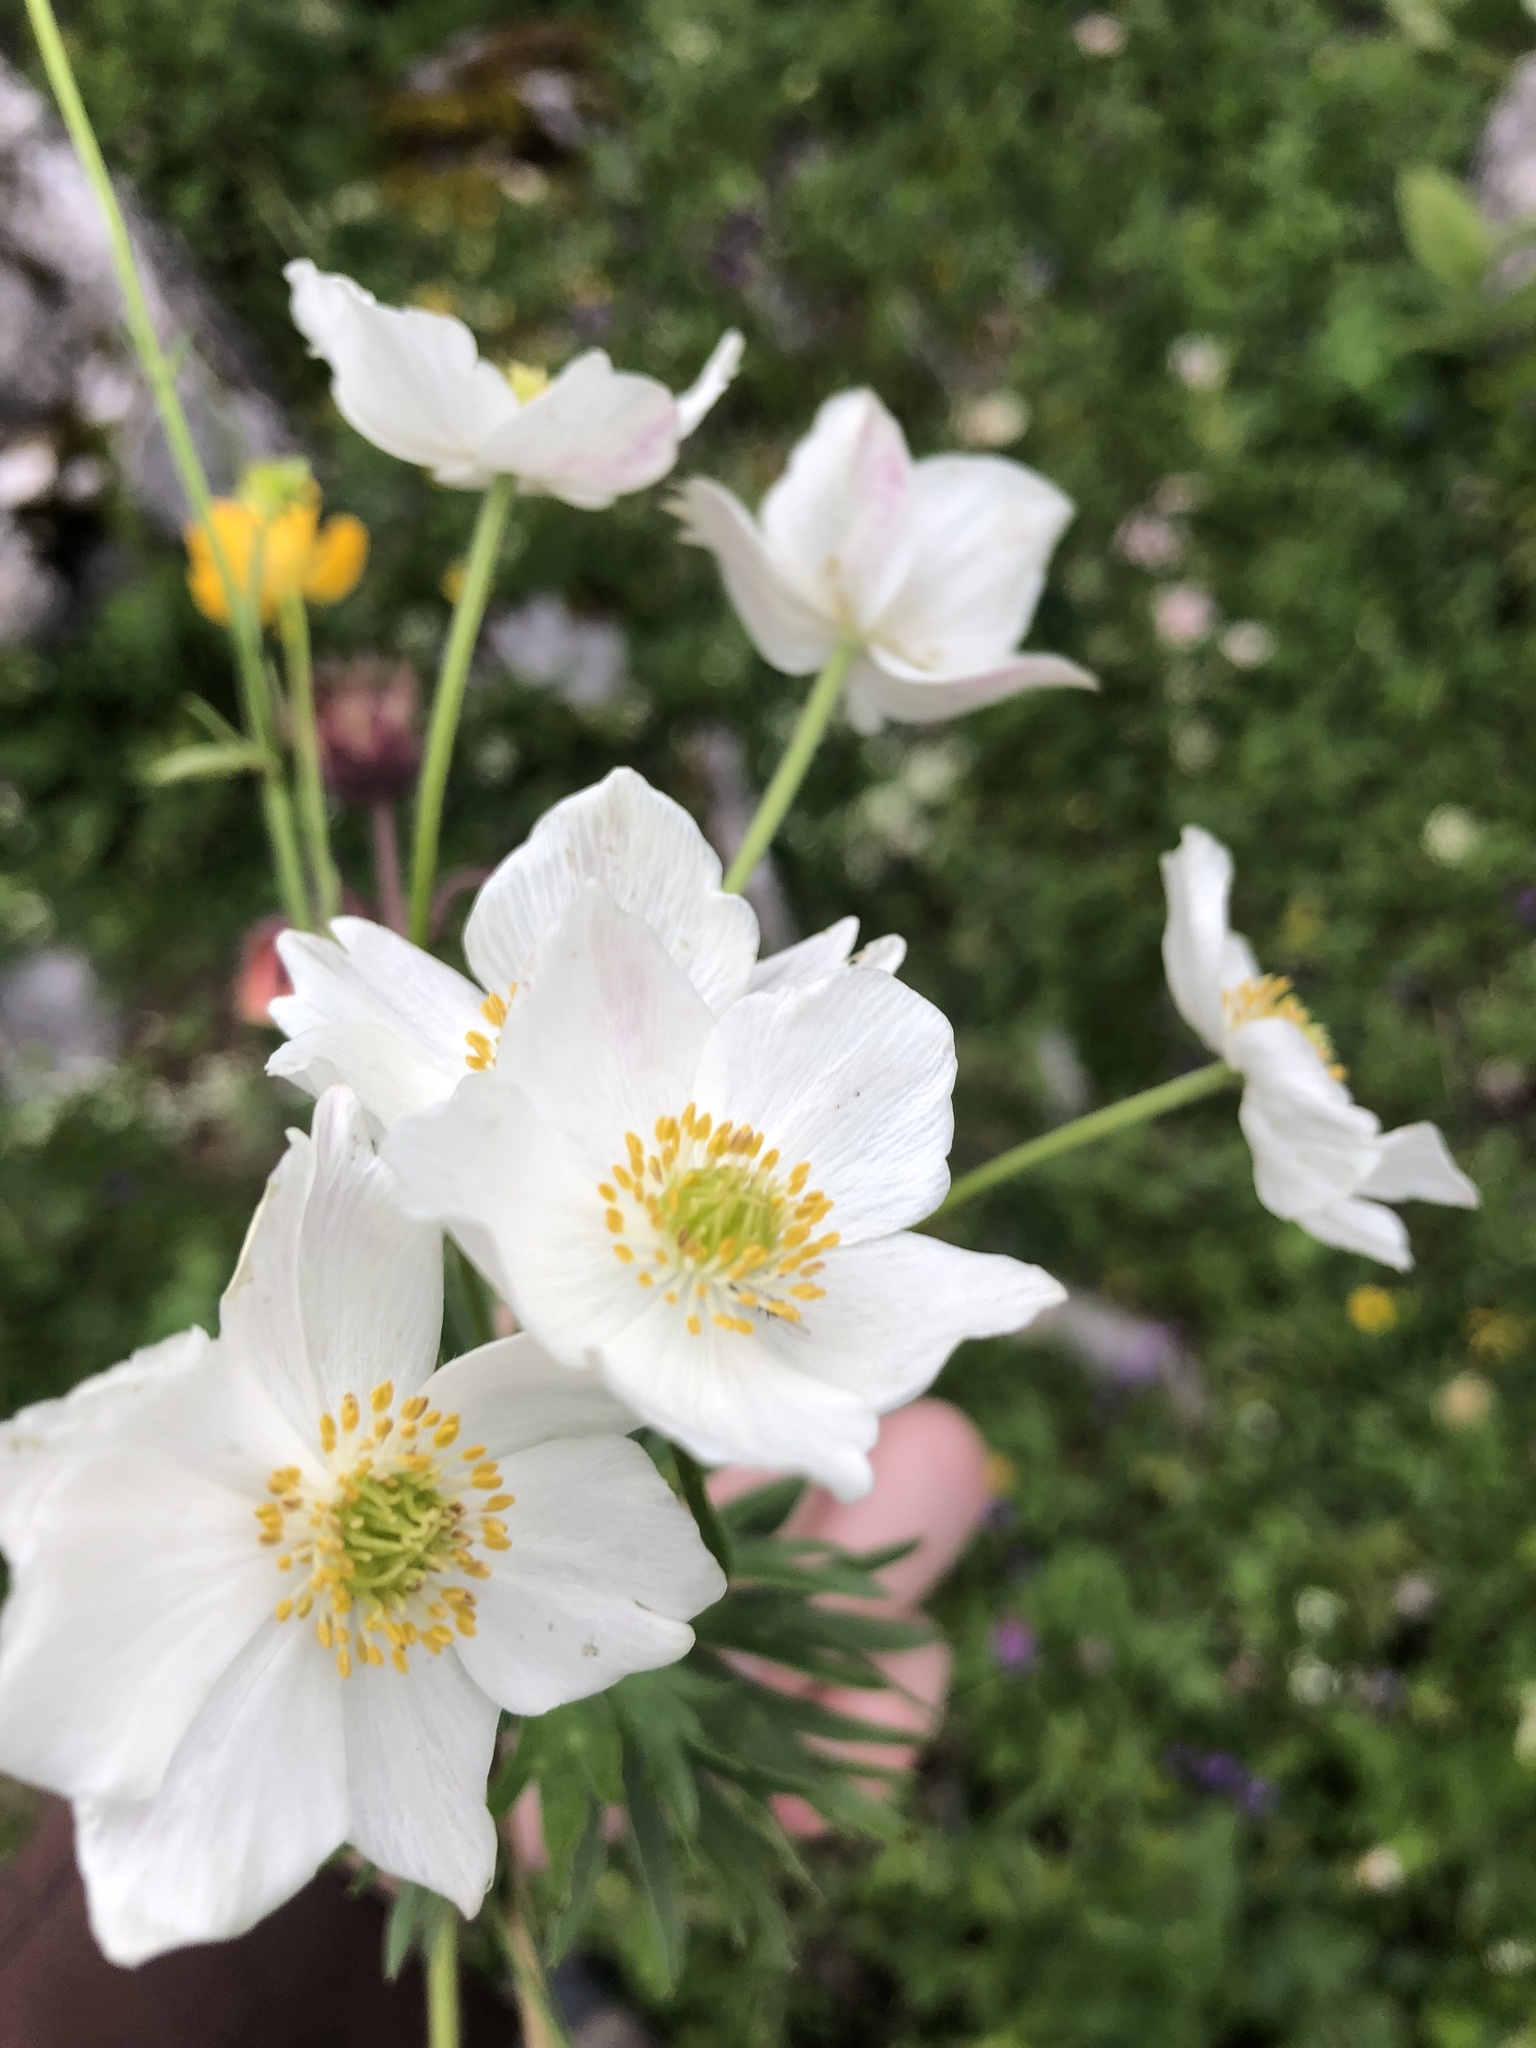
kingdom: Plantae
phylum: Tracheophyta
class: Magnoliopsida
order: Ranunculales
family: Ranunculaceae
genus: Anemonastrum
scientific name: Anemonastrum narcissiflorum
